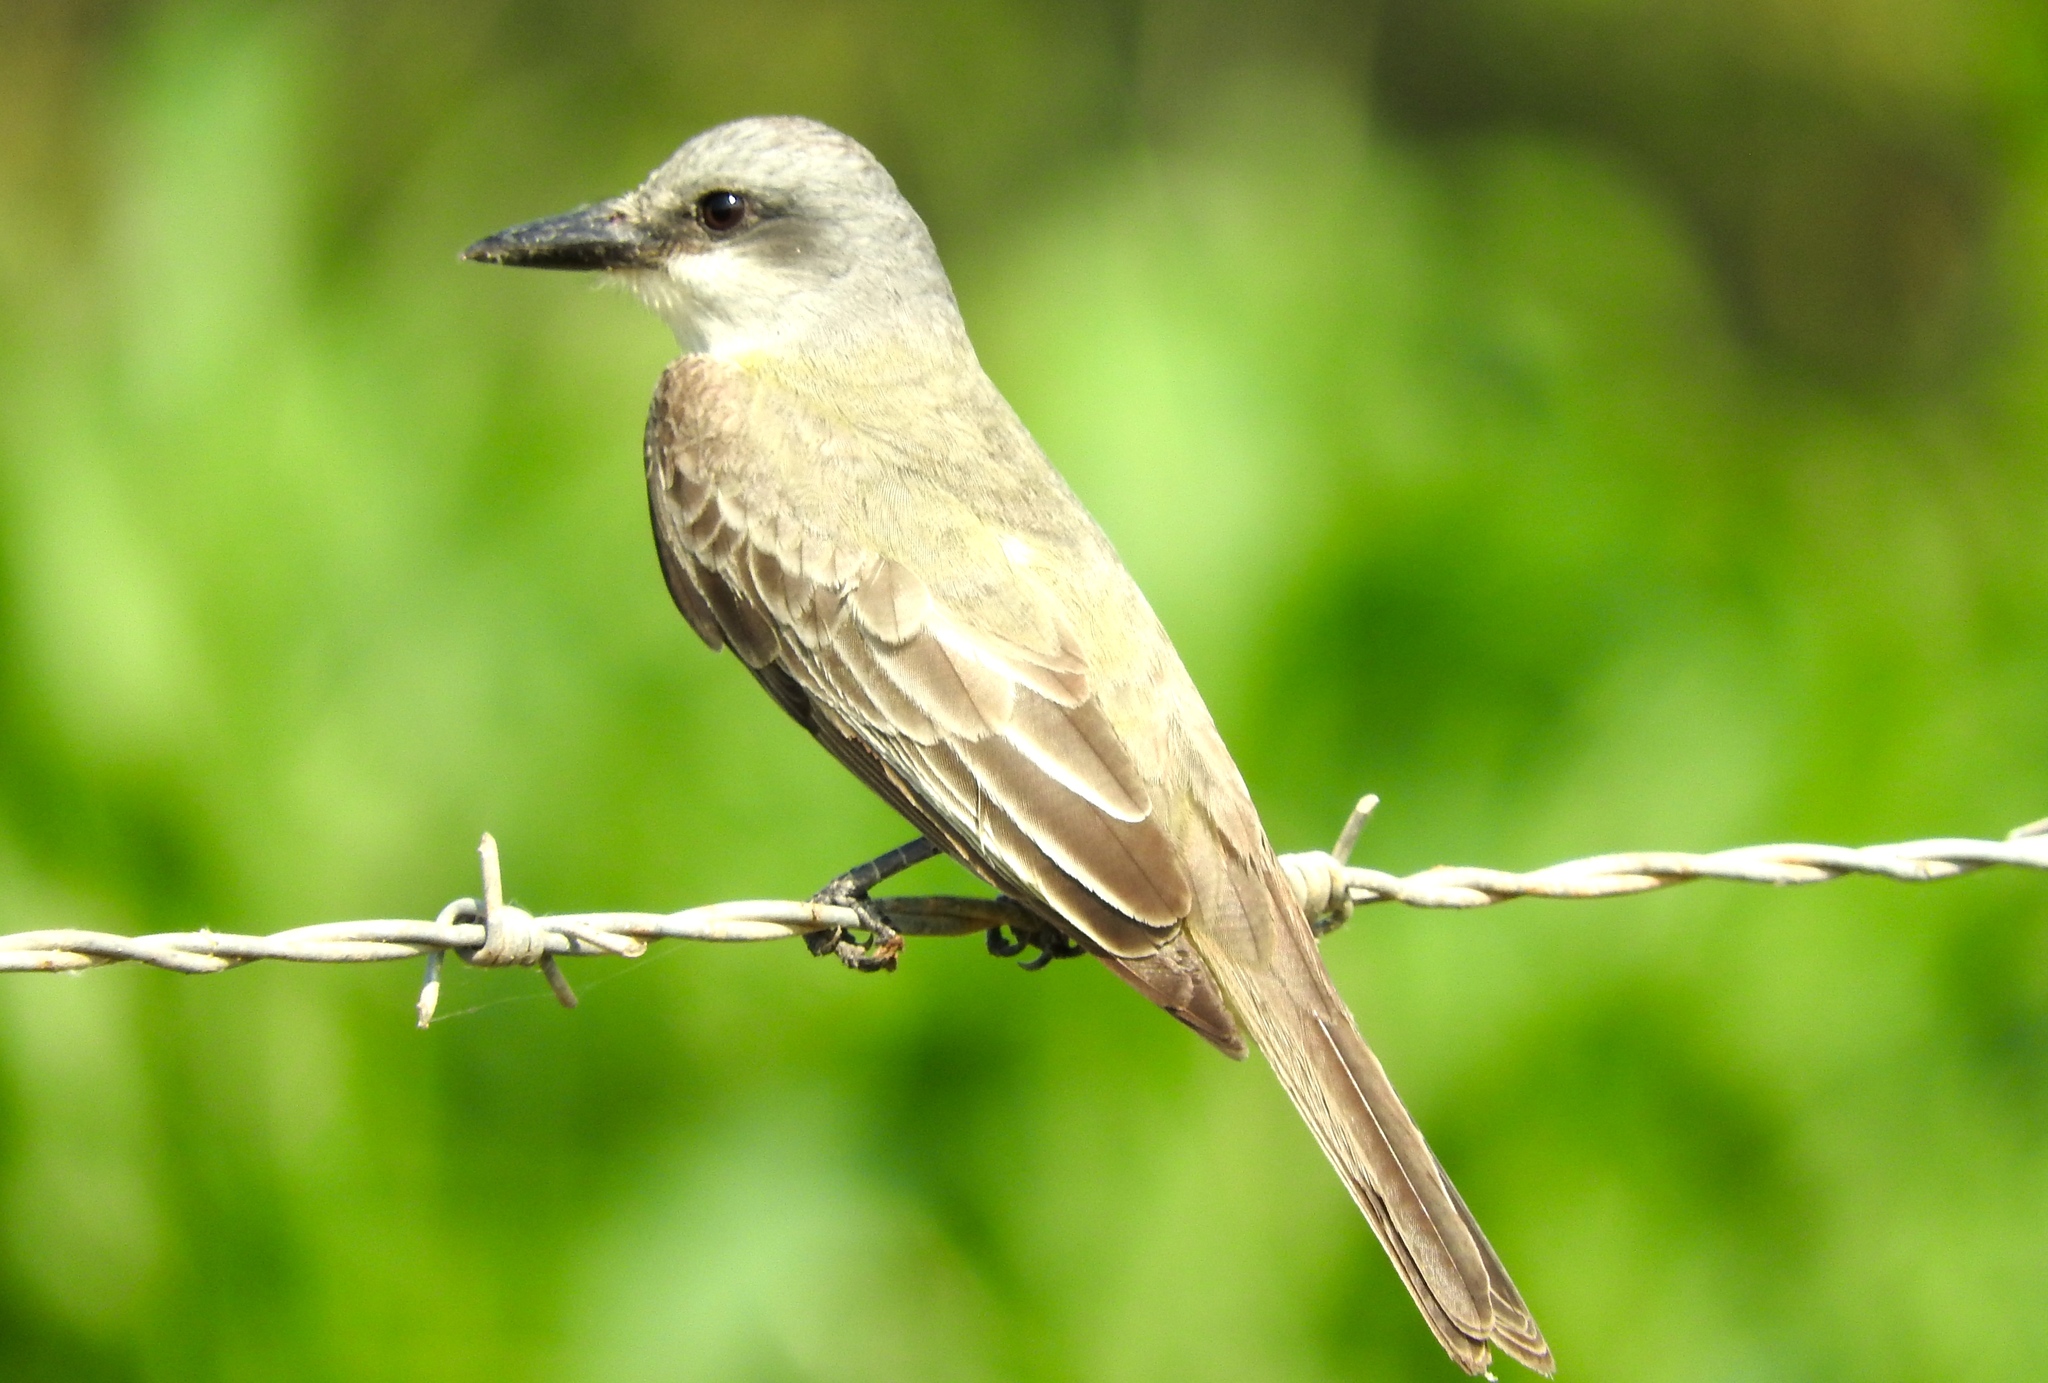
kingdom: Animalia
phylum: Chordata
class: Aves
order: Passeriformes
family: Tyrannidae
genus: Tyrannus
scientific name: Tyrannus melancholicus
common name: Tropical kingbird
